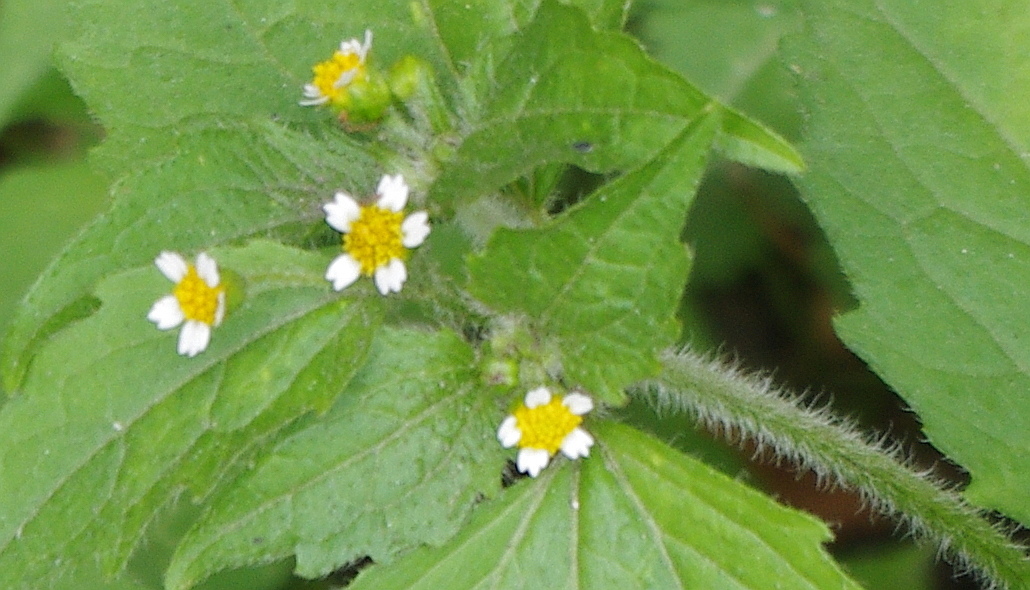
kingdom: Plantae
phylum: Tracheophyta
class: Magnoliopsida
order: Asterales
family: Asteraceae
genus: Galinsoga
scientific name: Galinsoga quadriradiata
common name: Shaggy soldier
